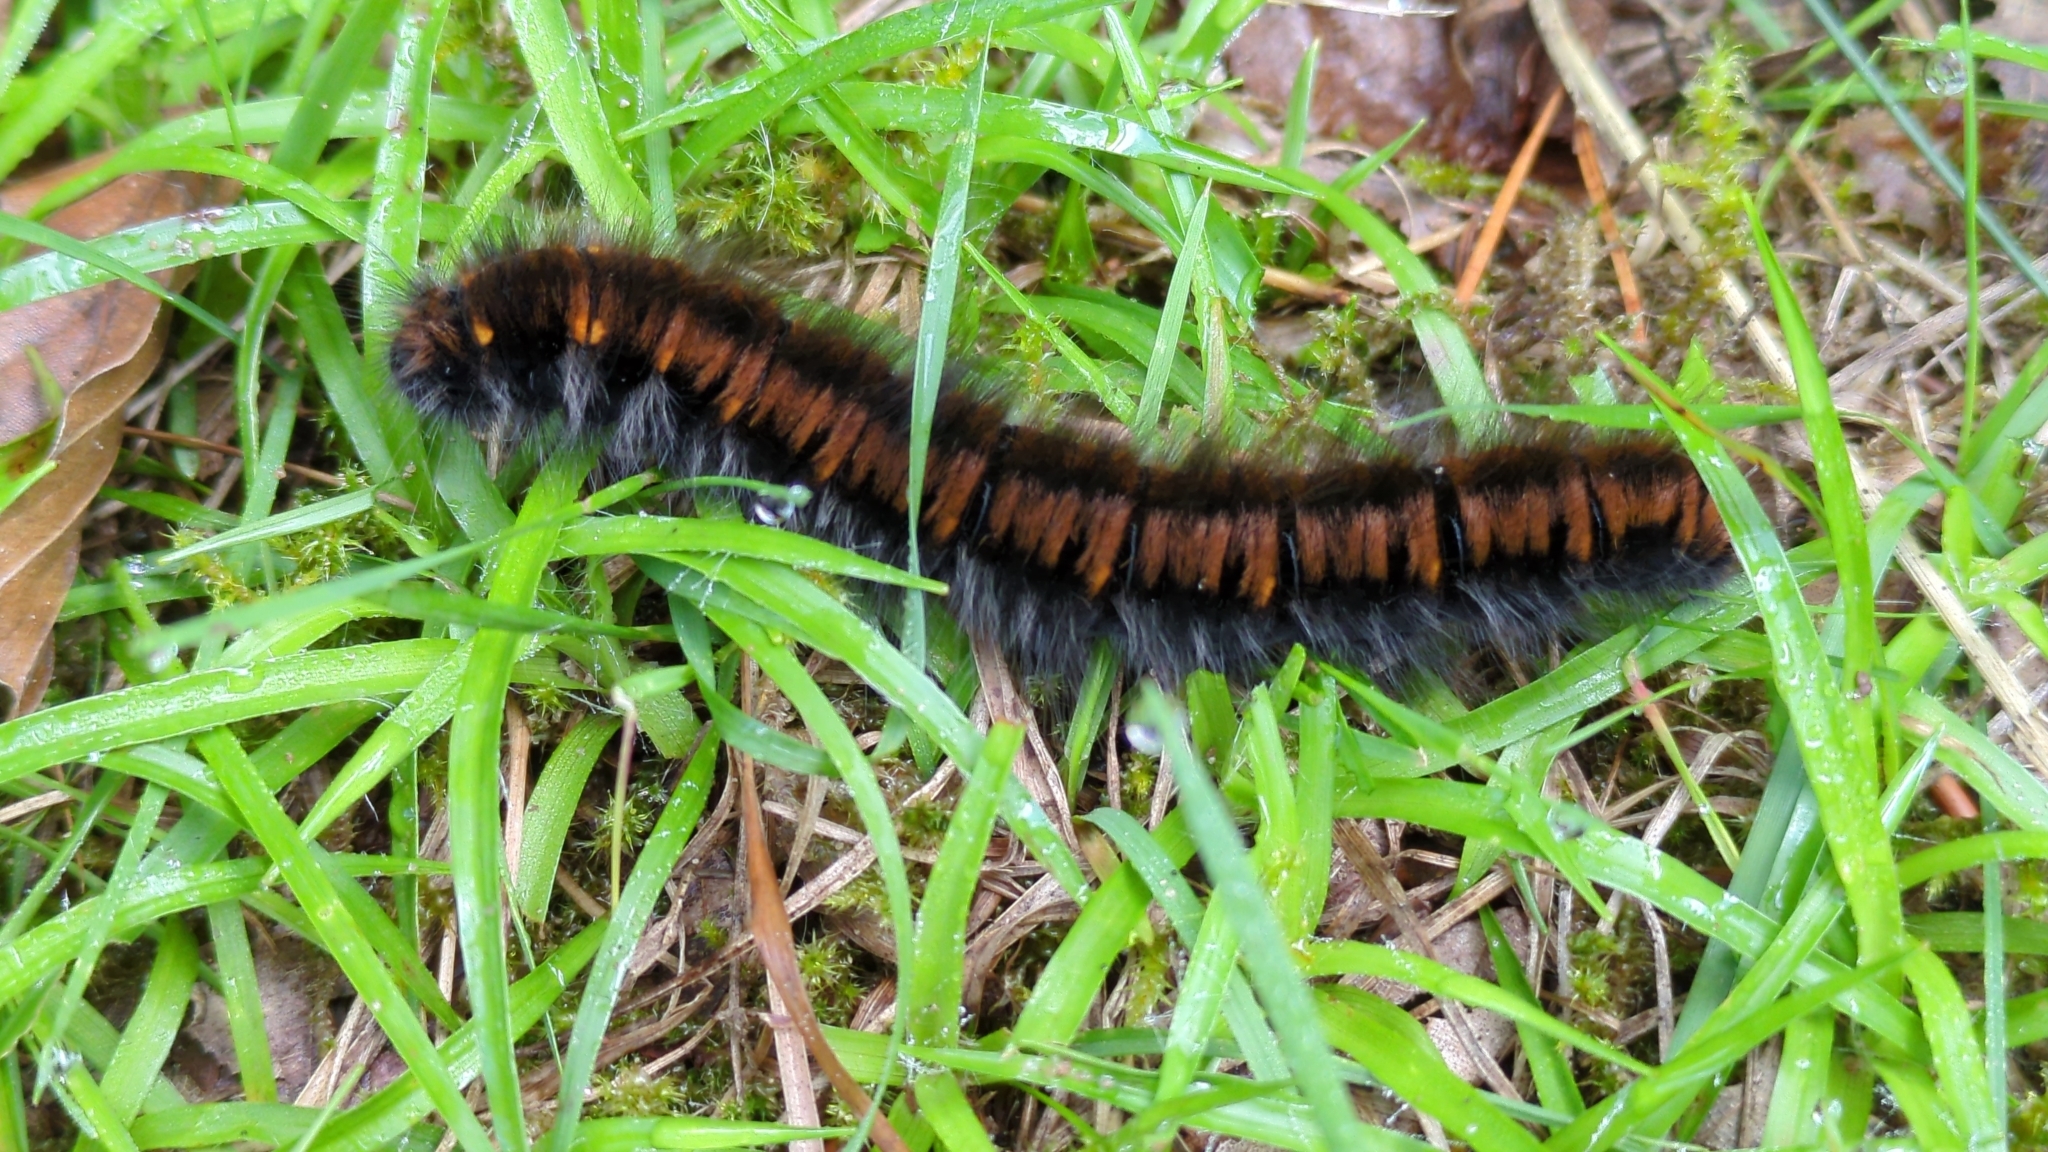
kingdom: Animalia
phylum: Arthropoda
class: Insecta
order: Lepidoptera
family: Lasiocampidae
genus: Macrothylacia
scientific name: Macrothylacia rubi
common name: Fox moth
